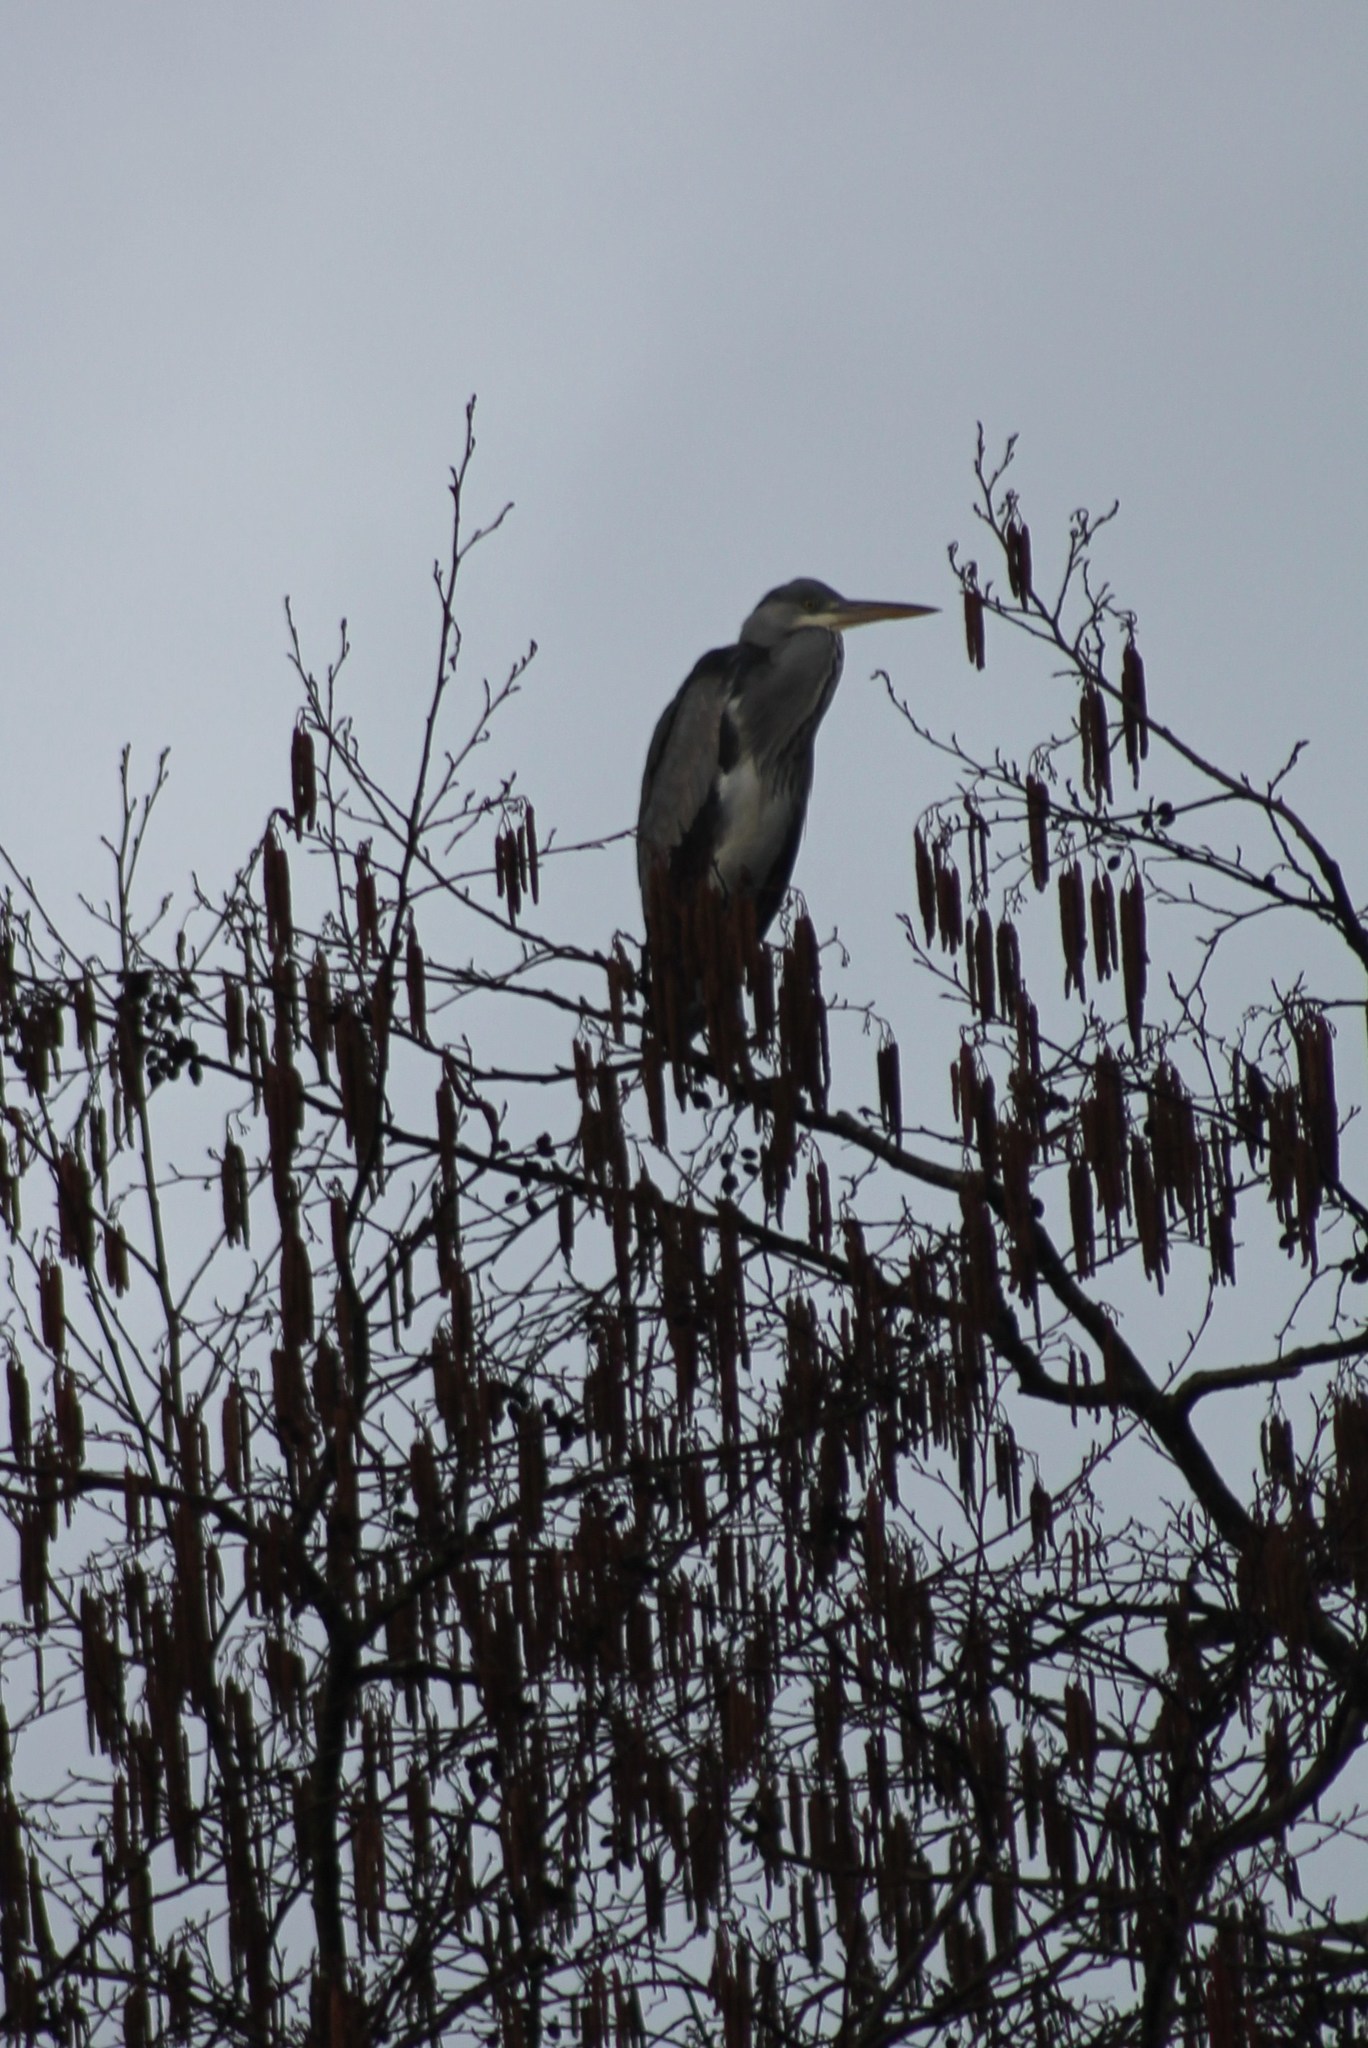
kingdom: Animalia
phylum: Chordata
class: Aves
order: Pelecaniformes
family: Ardeidae
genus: Ardea
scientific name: Ardea cinerea
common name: Grey heron
